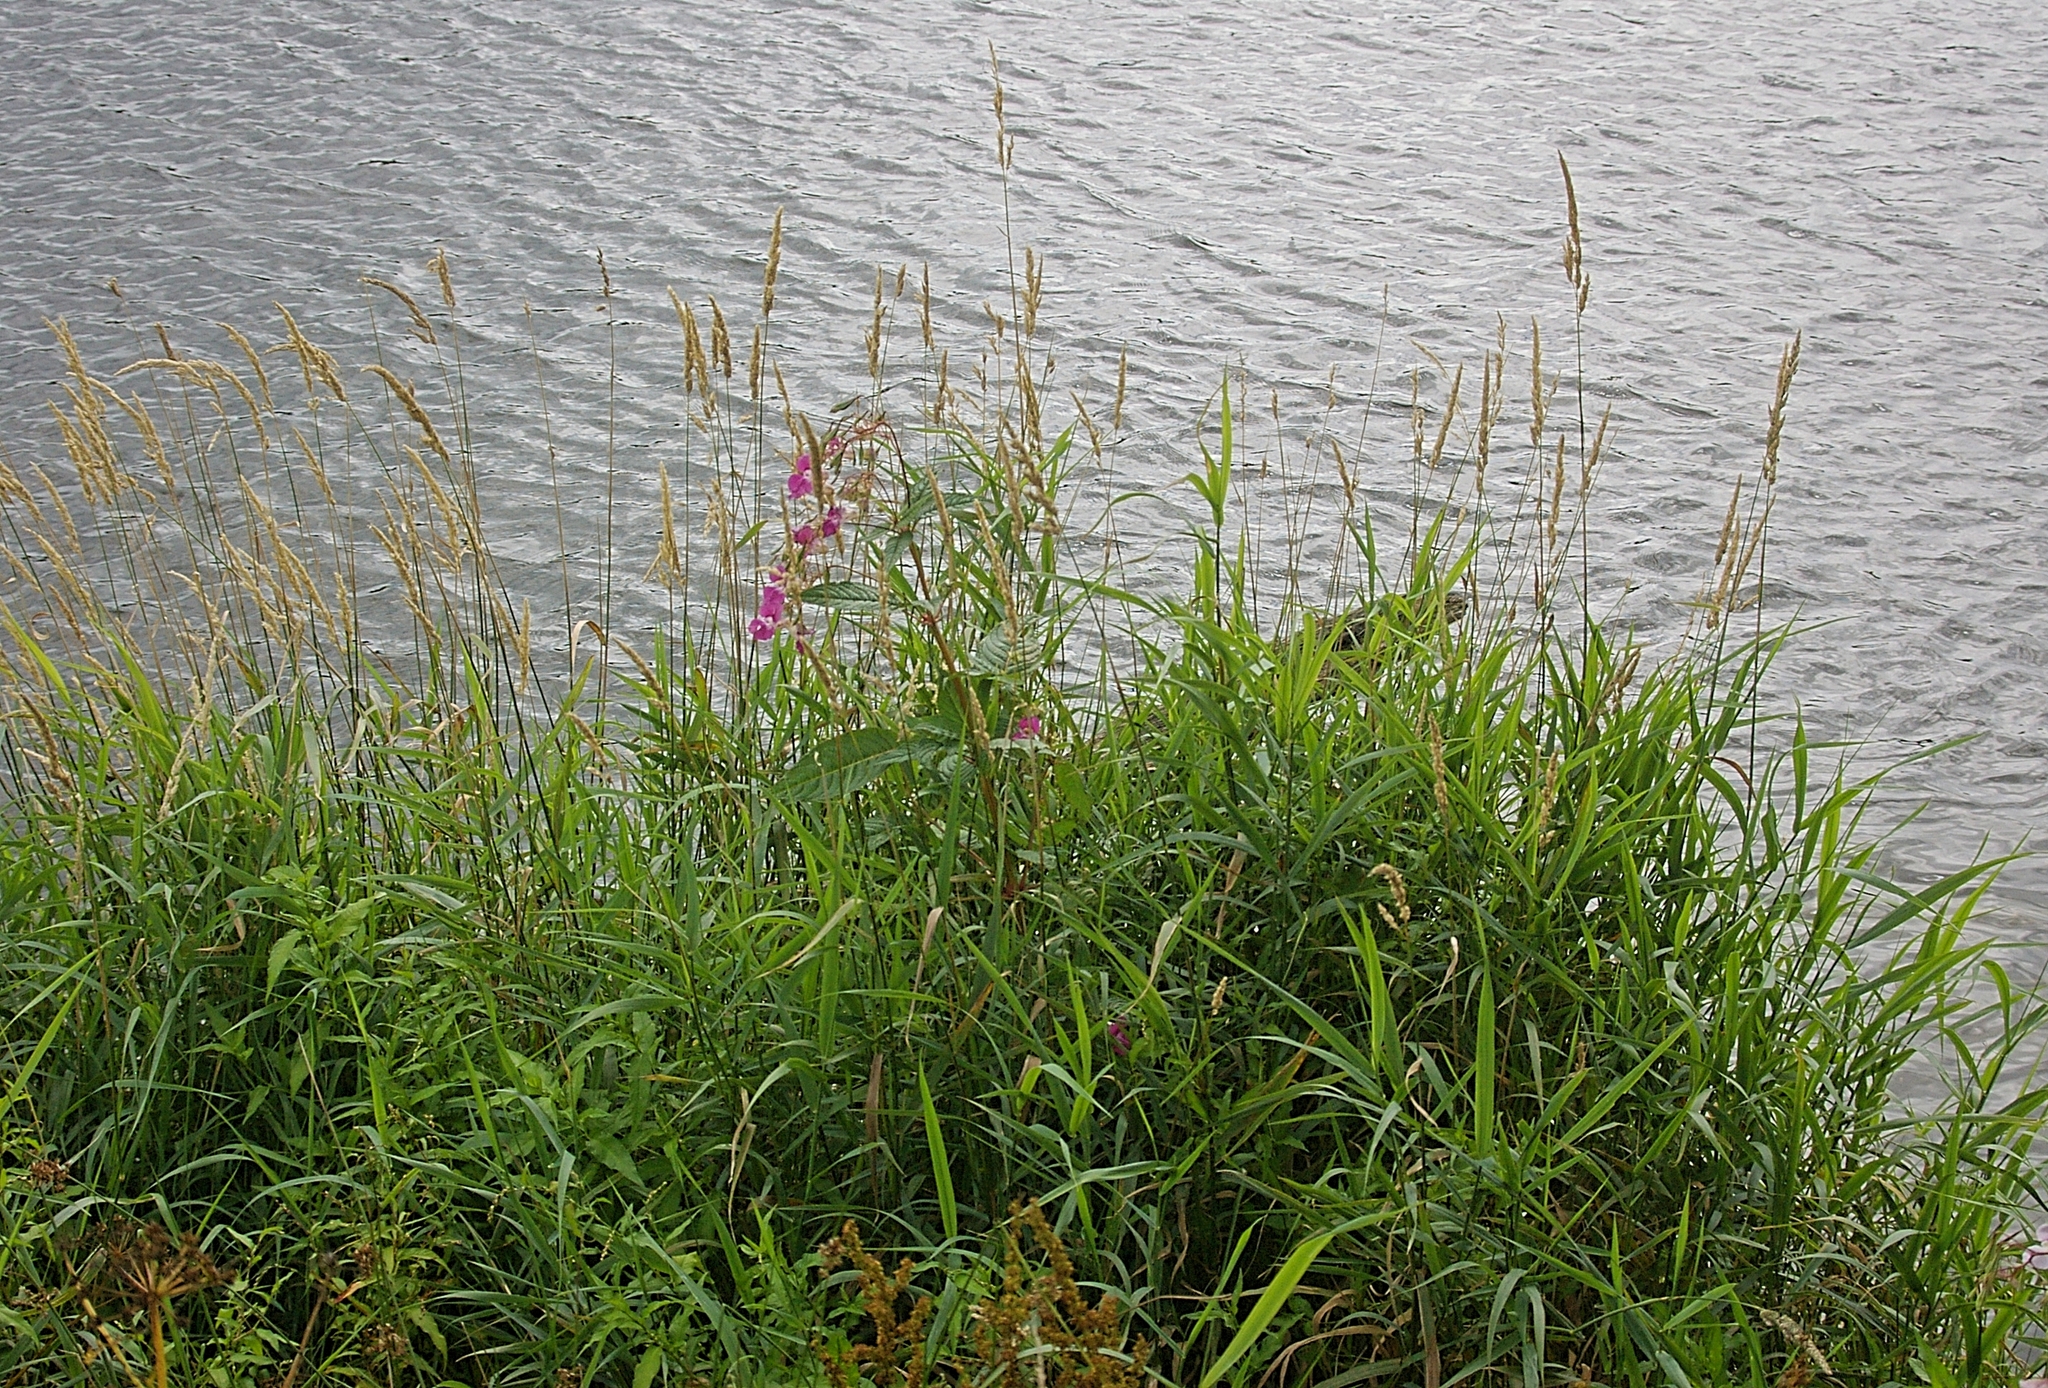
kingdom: Plantae
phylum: Tracheophyta
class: Liliopsida
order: Poales
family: Poaceae
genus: Phalaris
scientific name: Phalaris arundinacea
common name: Reed canary-grass
